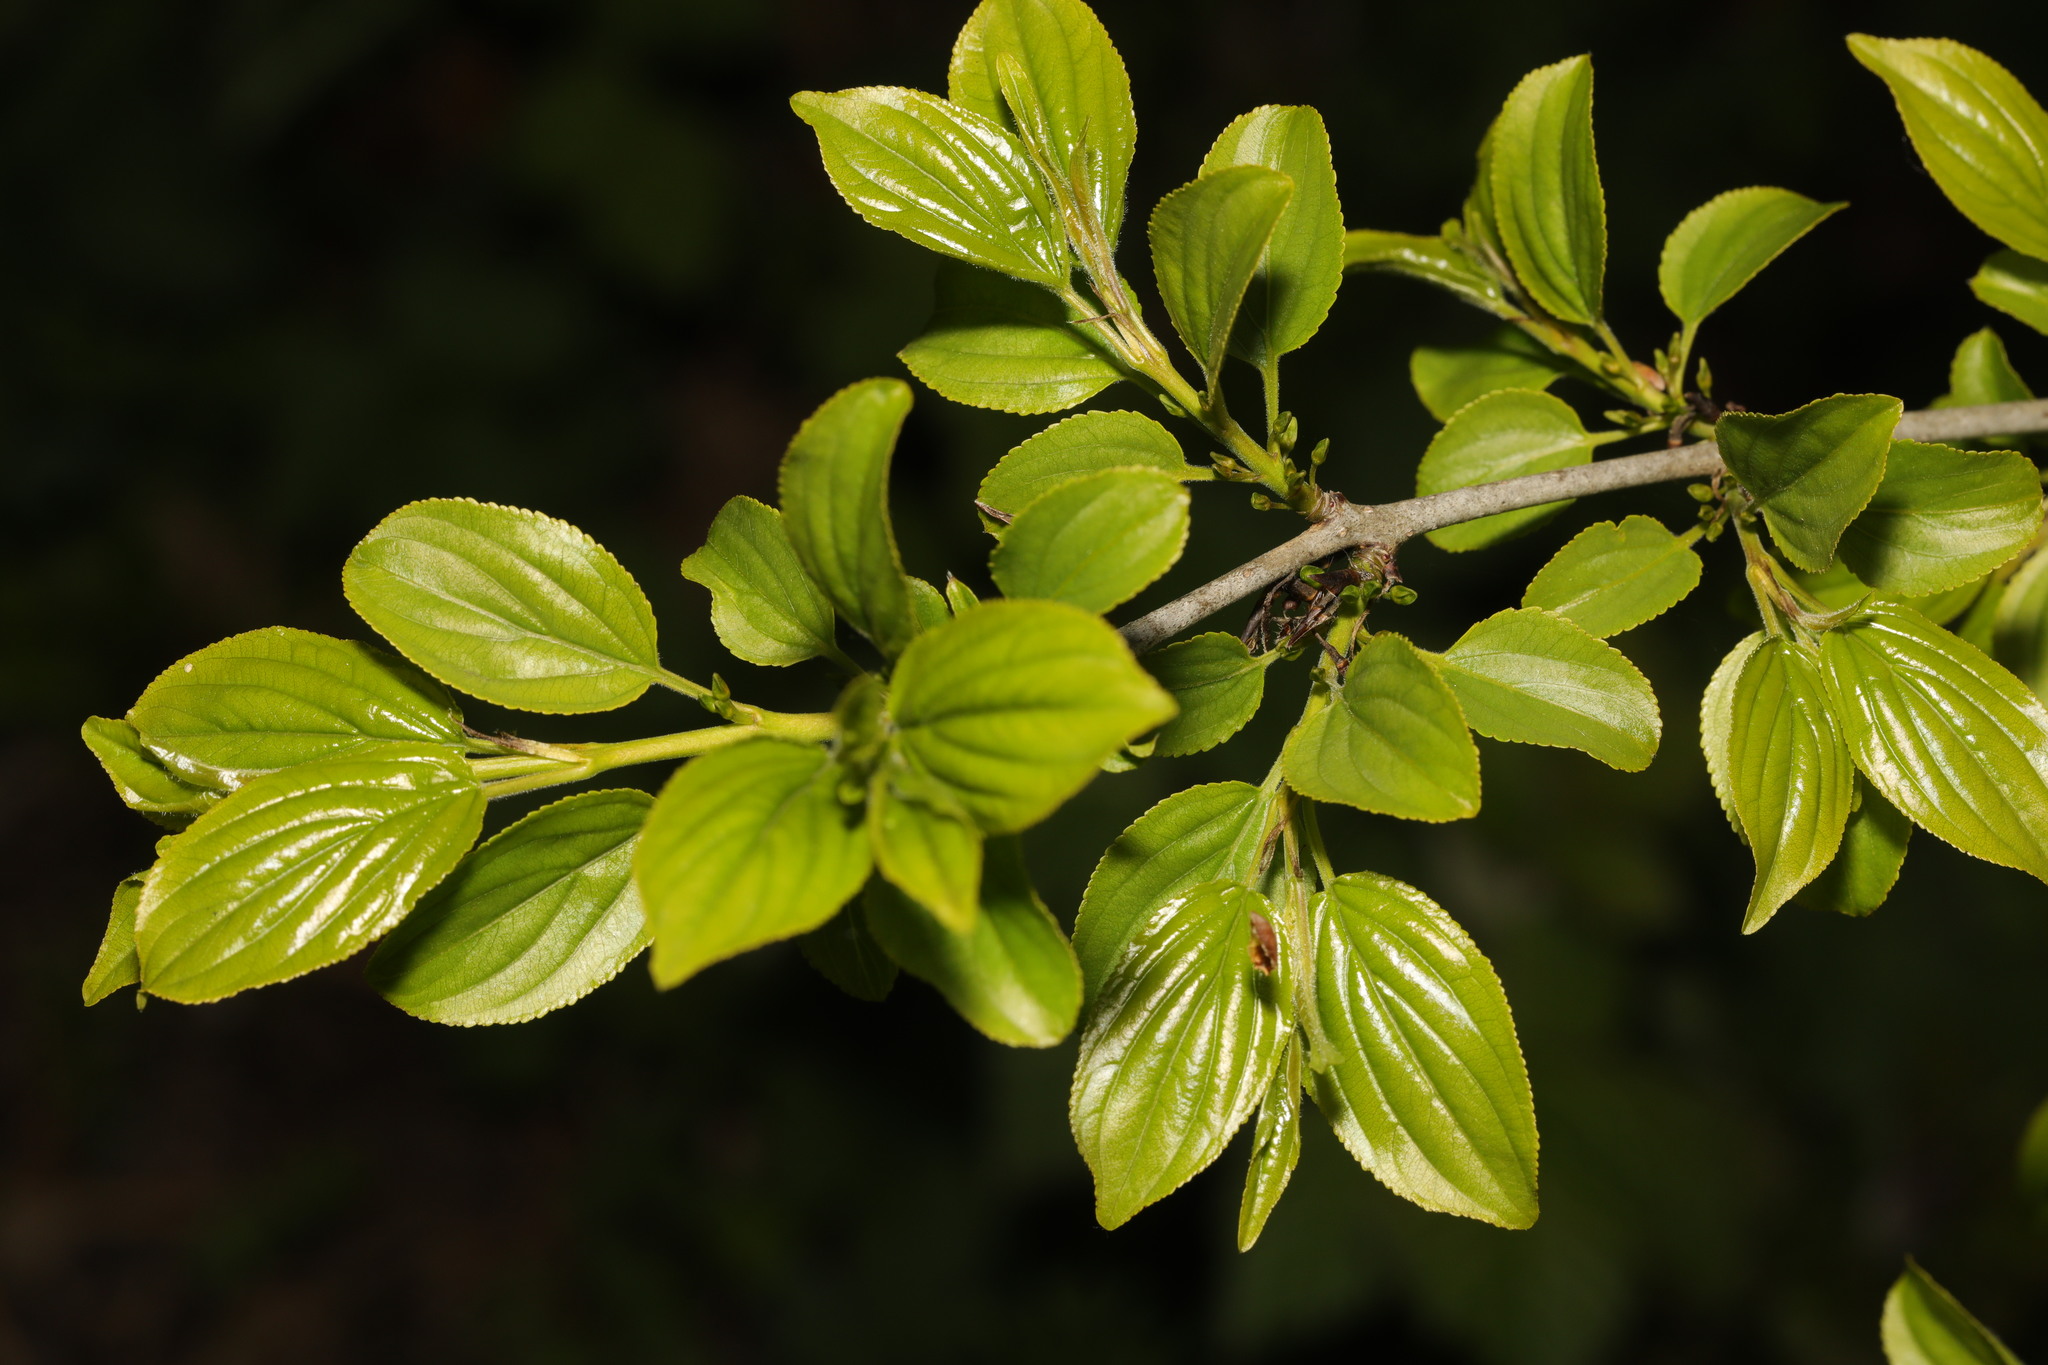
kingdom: Plantae
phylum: Tracheophyta
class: Magnoliopsida
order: Rosales
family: Rhamnaceae
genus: Rhamnus
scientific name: Rhamnus cathartica
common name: Common buckthorn
